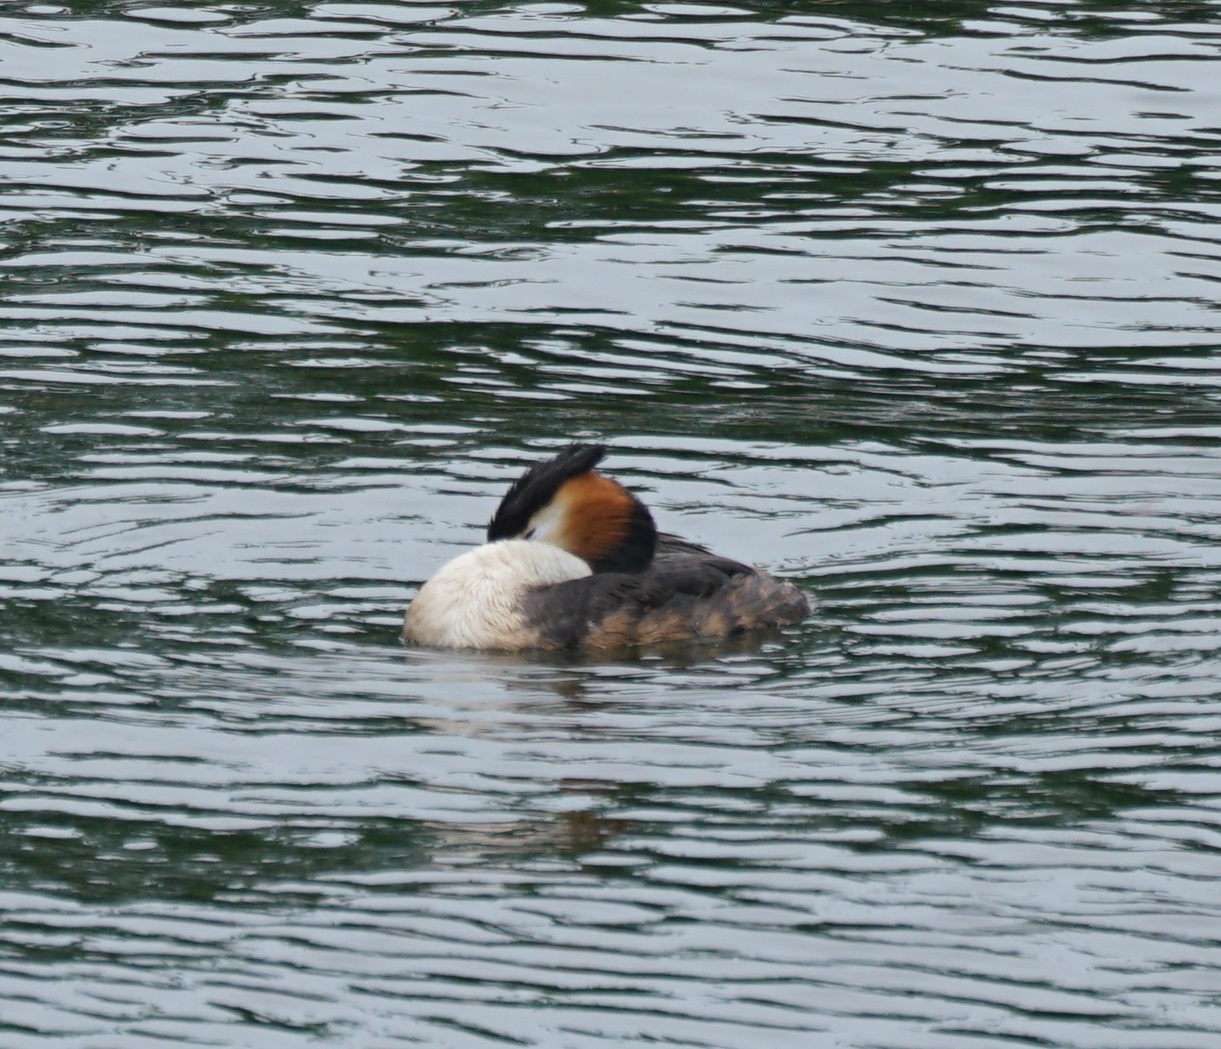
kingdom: Animalia
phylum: Chordata
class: Aves
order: Podicipediformes
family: Podicipedidae
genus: Podiceps
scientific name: Podiceps cristatus
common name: Great crested grebe
